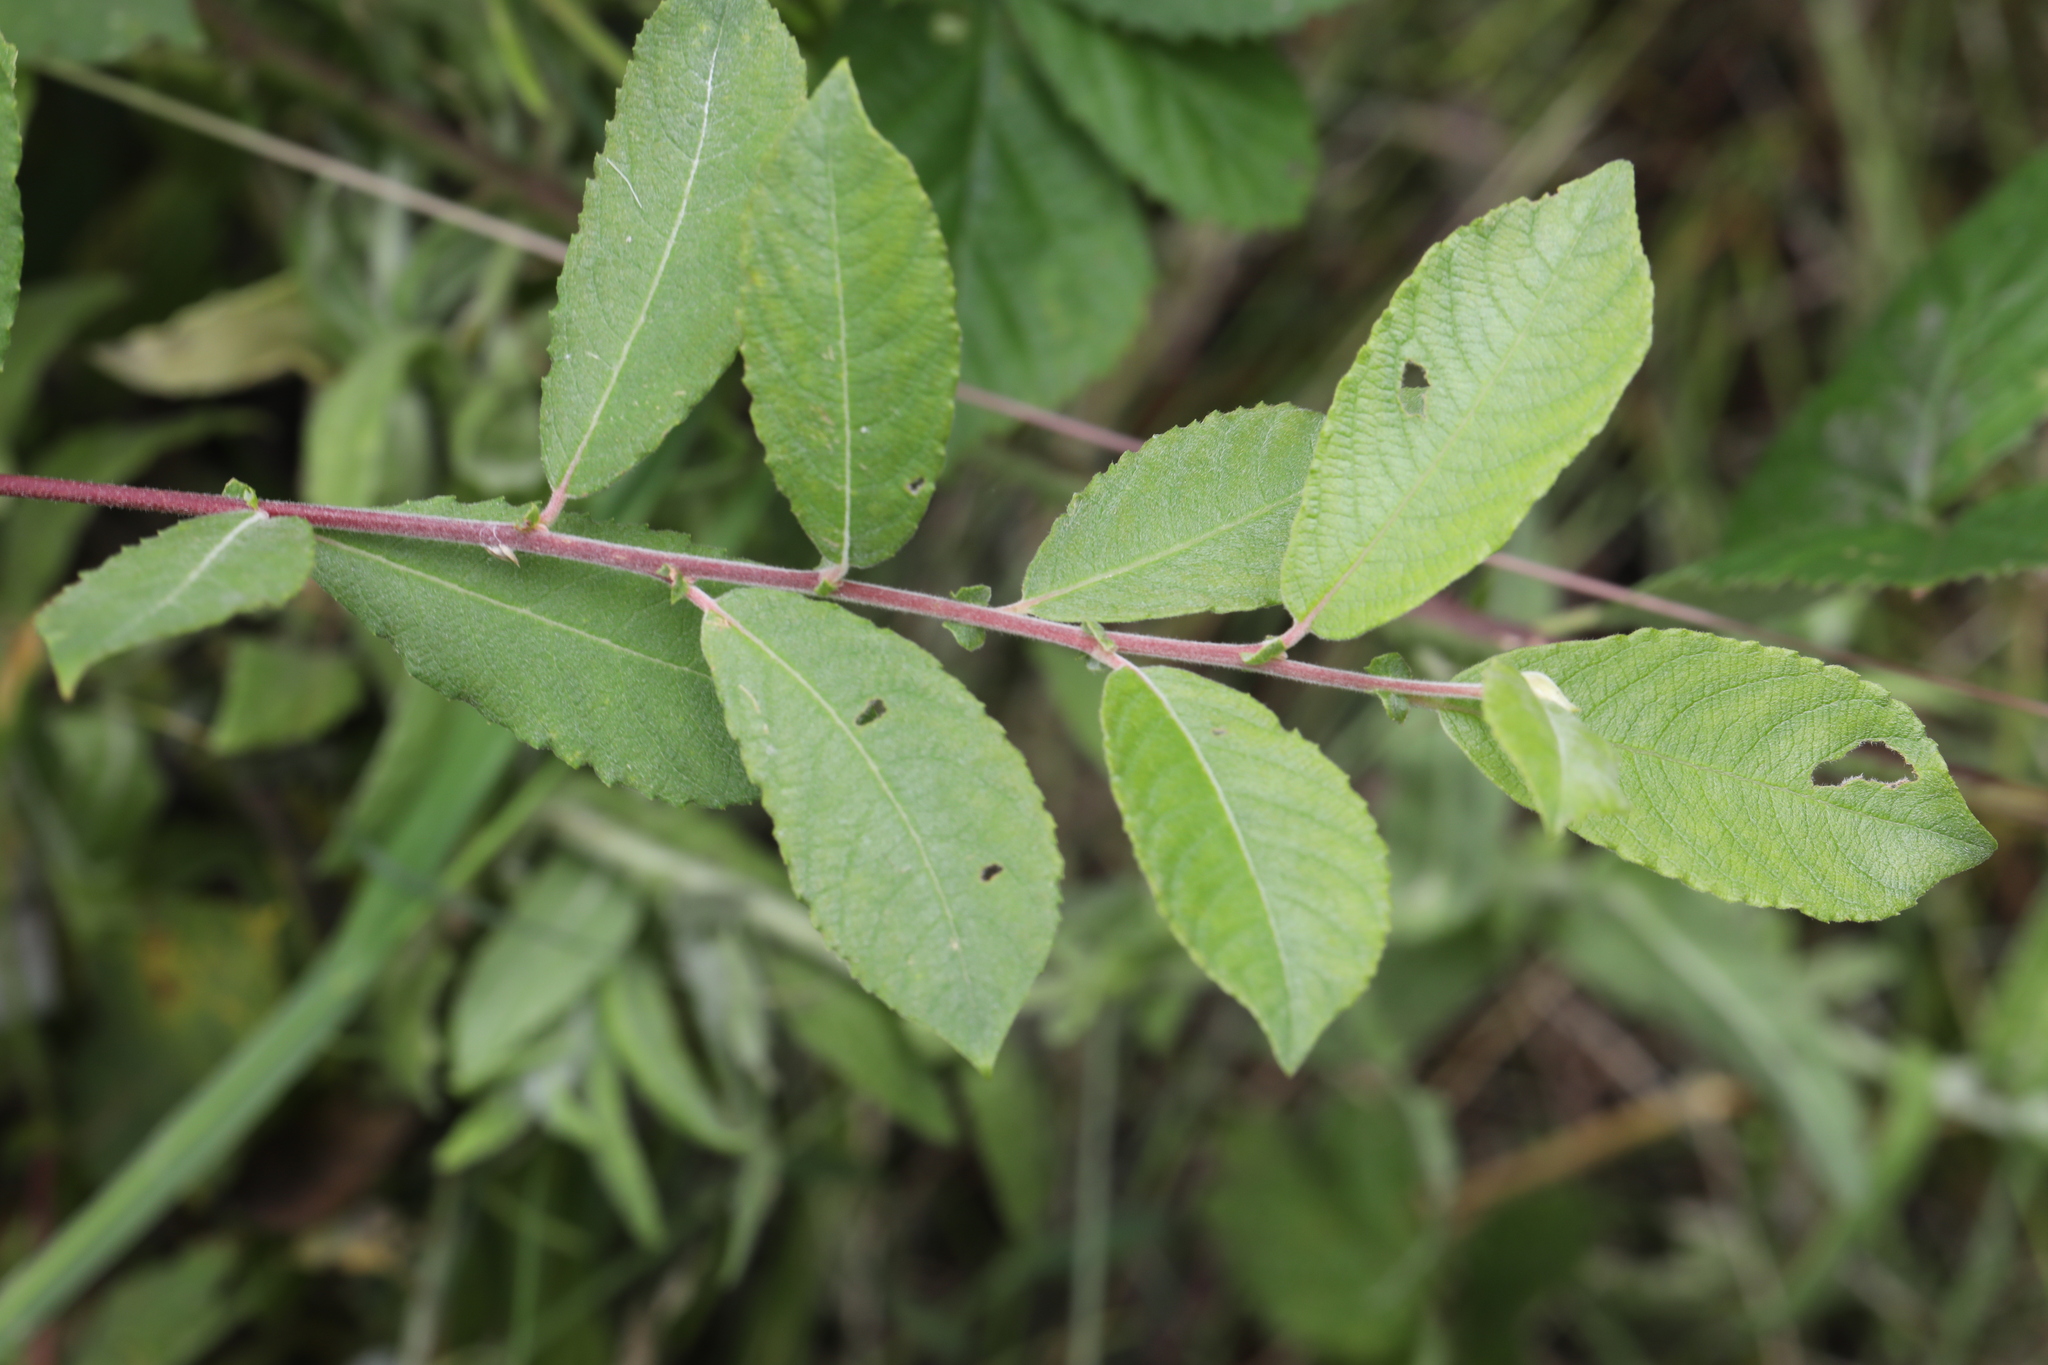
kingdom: Plantae
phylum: Tracheophyta
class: Magnoliopsida
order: Malpighiales
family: Salicaceae
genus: Salix
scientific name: Salix cinerea
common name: Common sallow
